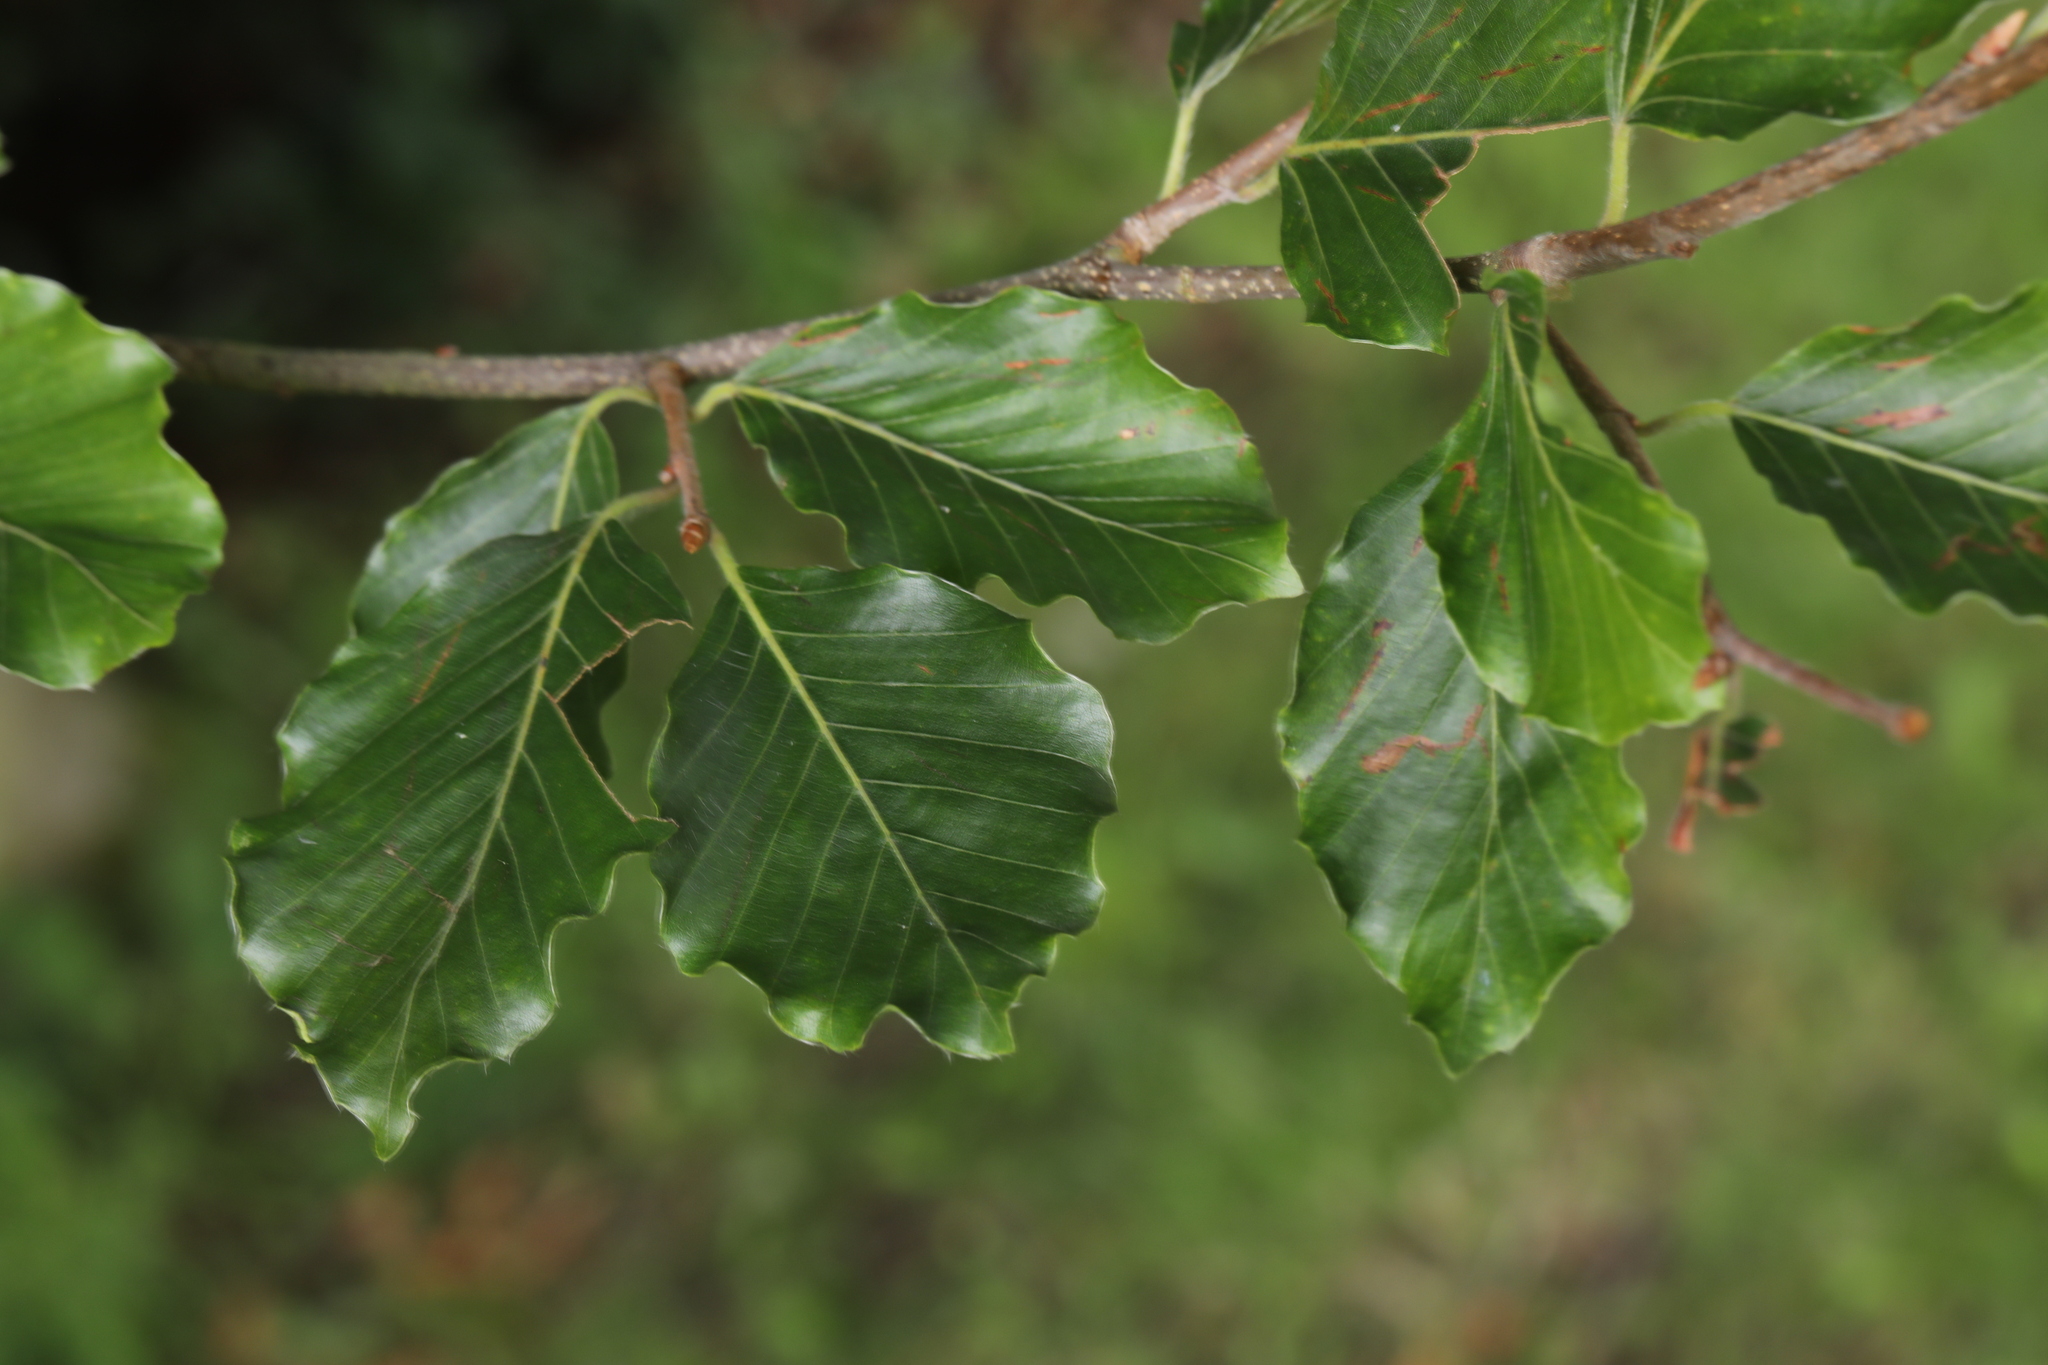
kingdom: Plantae
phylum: Tracheophyta
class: Magnoliopsida
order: Fagales
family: Fagaceae
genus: Fagus
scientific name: Fagus sylvatica
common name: Beech
